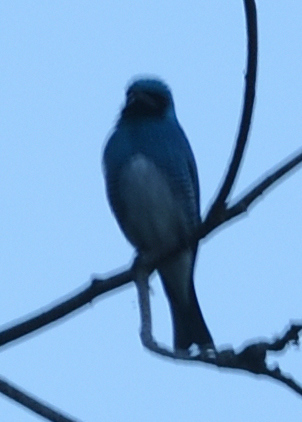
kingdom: Animalia
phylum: Chordata
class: Aves
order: Passeriformes
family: Thraupidae
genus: Tersina
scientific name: Tersina viridis
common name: Swallow tanager
